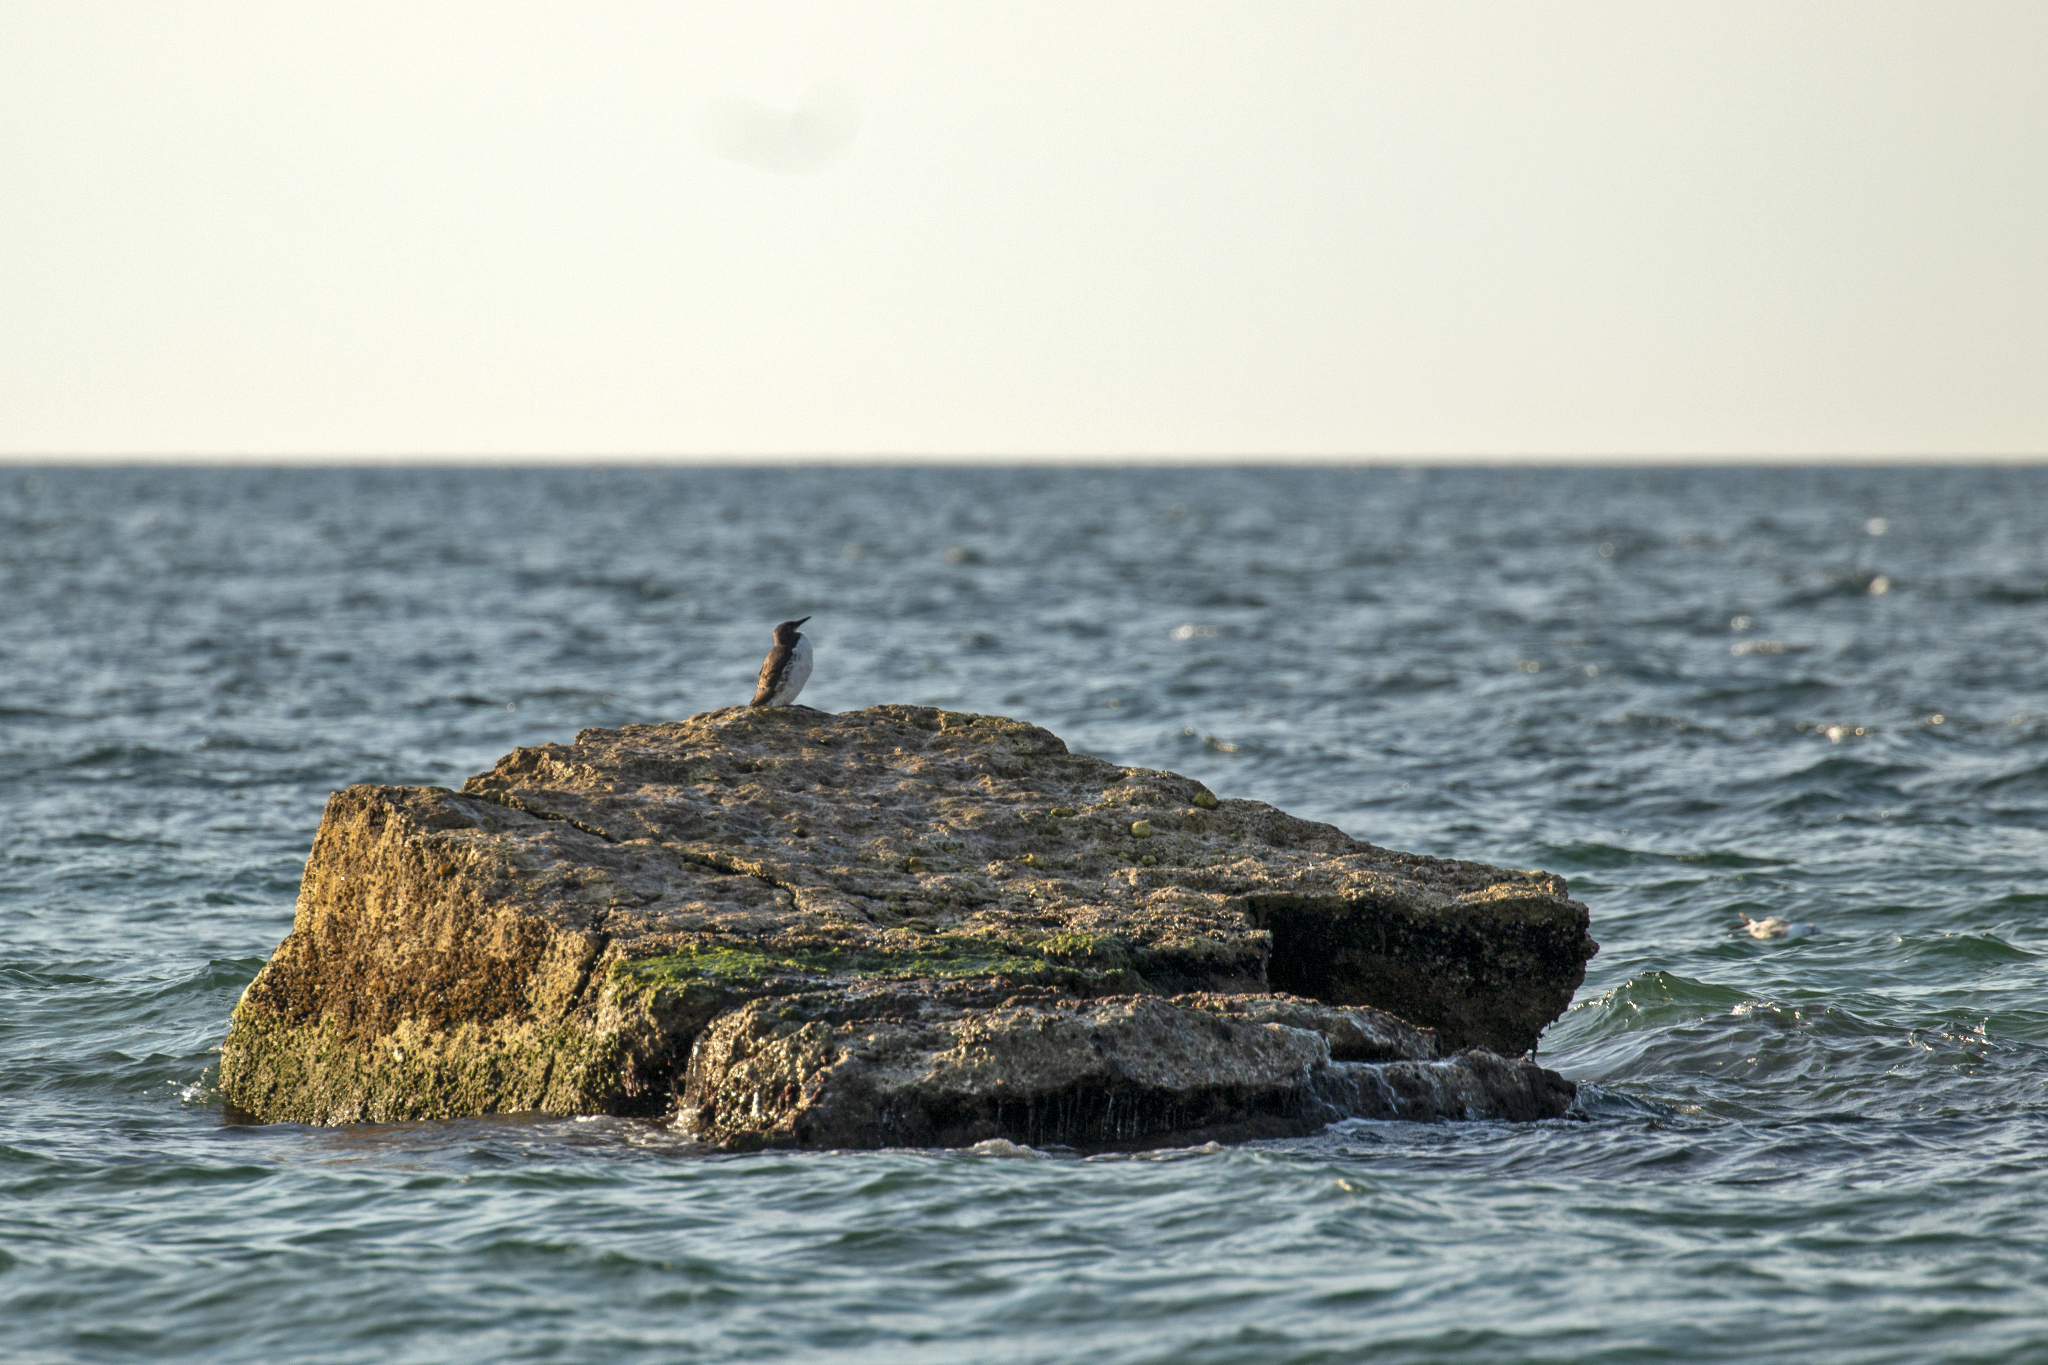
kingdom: Animalia
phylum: Chordata
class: Aves
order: Charadriiformes
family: Alcidae
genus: Uria
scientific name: Uria aalge
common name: Common murre
